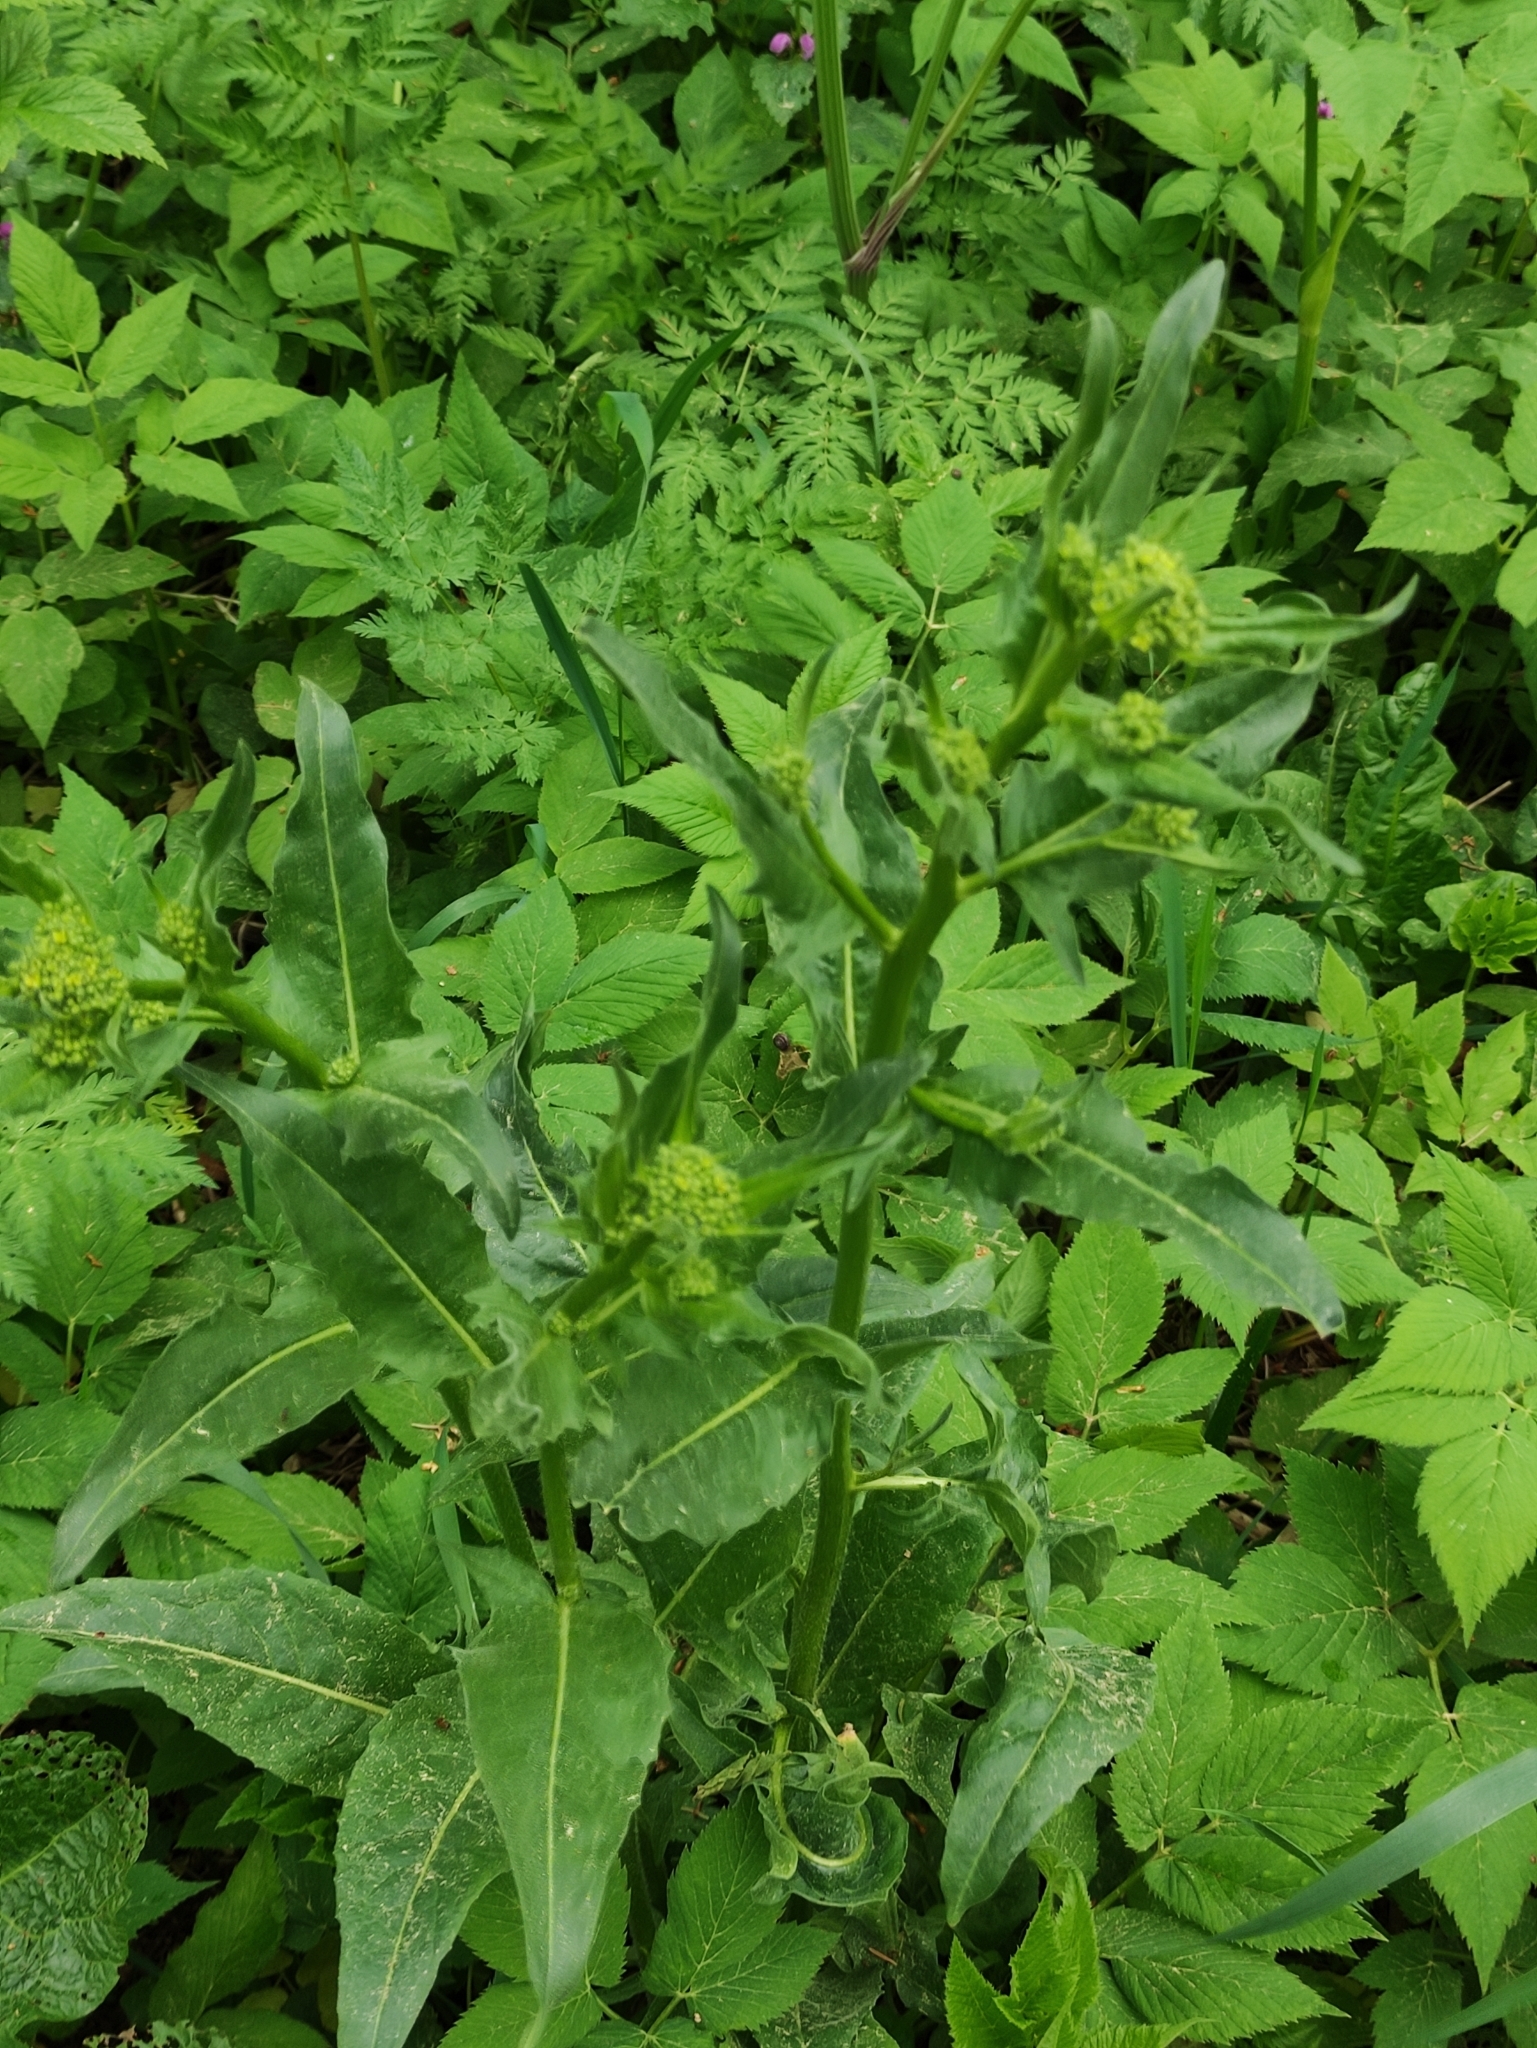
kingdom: Plantae
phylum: Tracheophyta
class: Magnoliopsida
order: Brassicales
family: Brassicaceae
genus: Bunias
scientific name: Bunias orientalis
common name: Warty-cabbage
